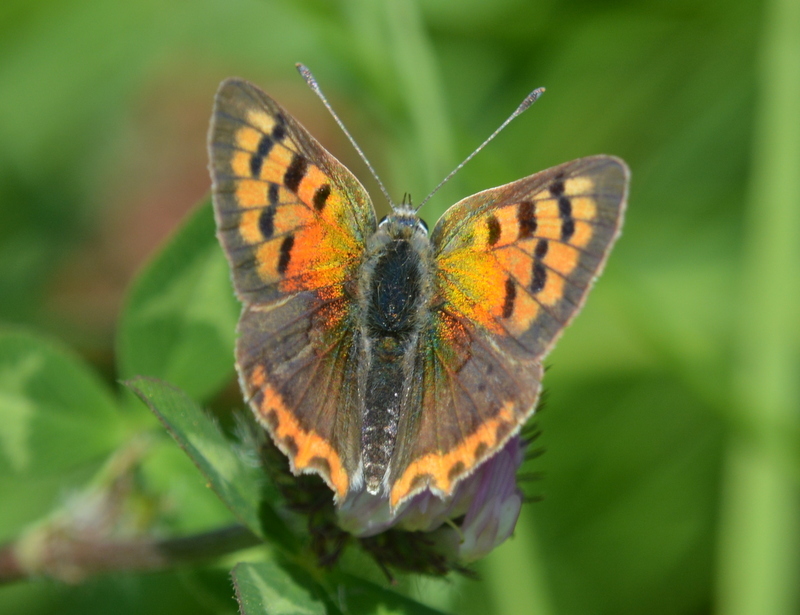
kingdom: Animalia
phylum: Arthropoda
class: Insecta
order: Lepidoptera
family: Lycaenidae
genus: Lycaena
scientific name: Lycaena phlaeas
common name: Small copper
